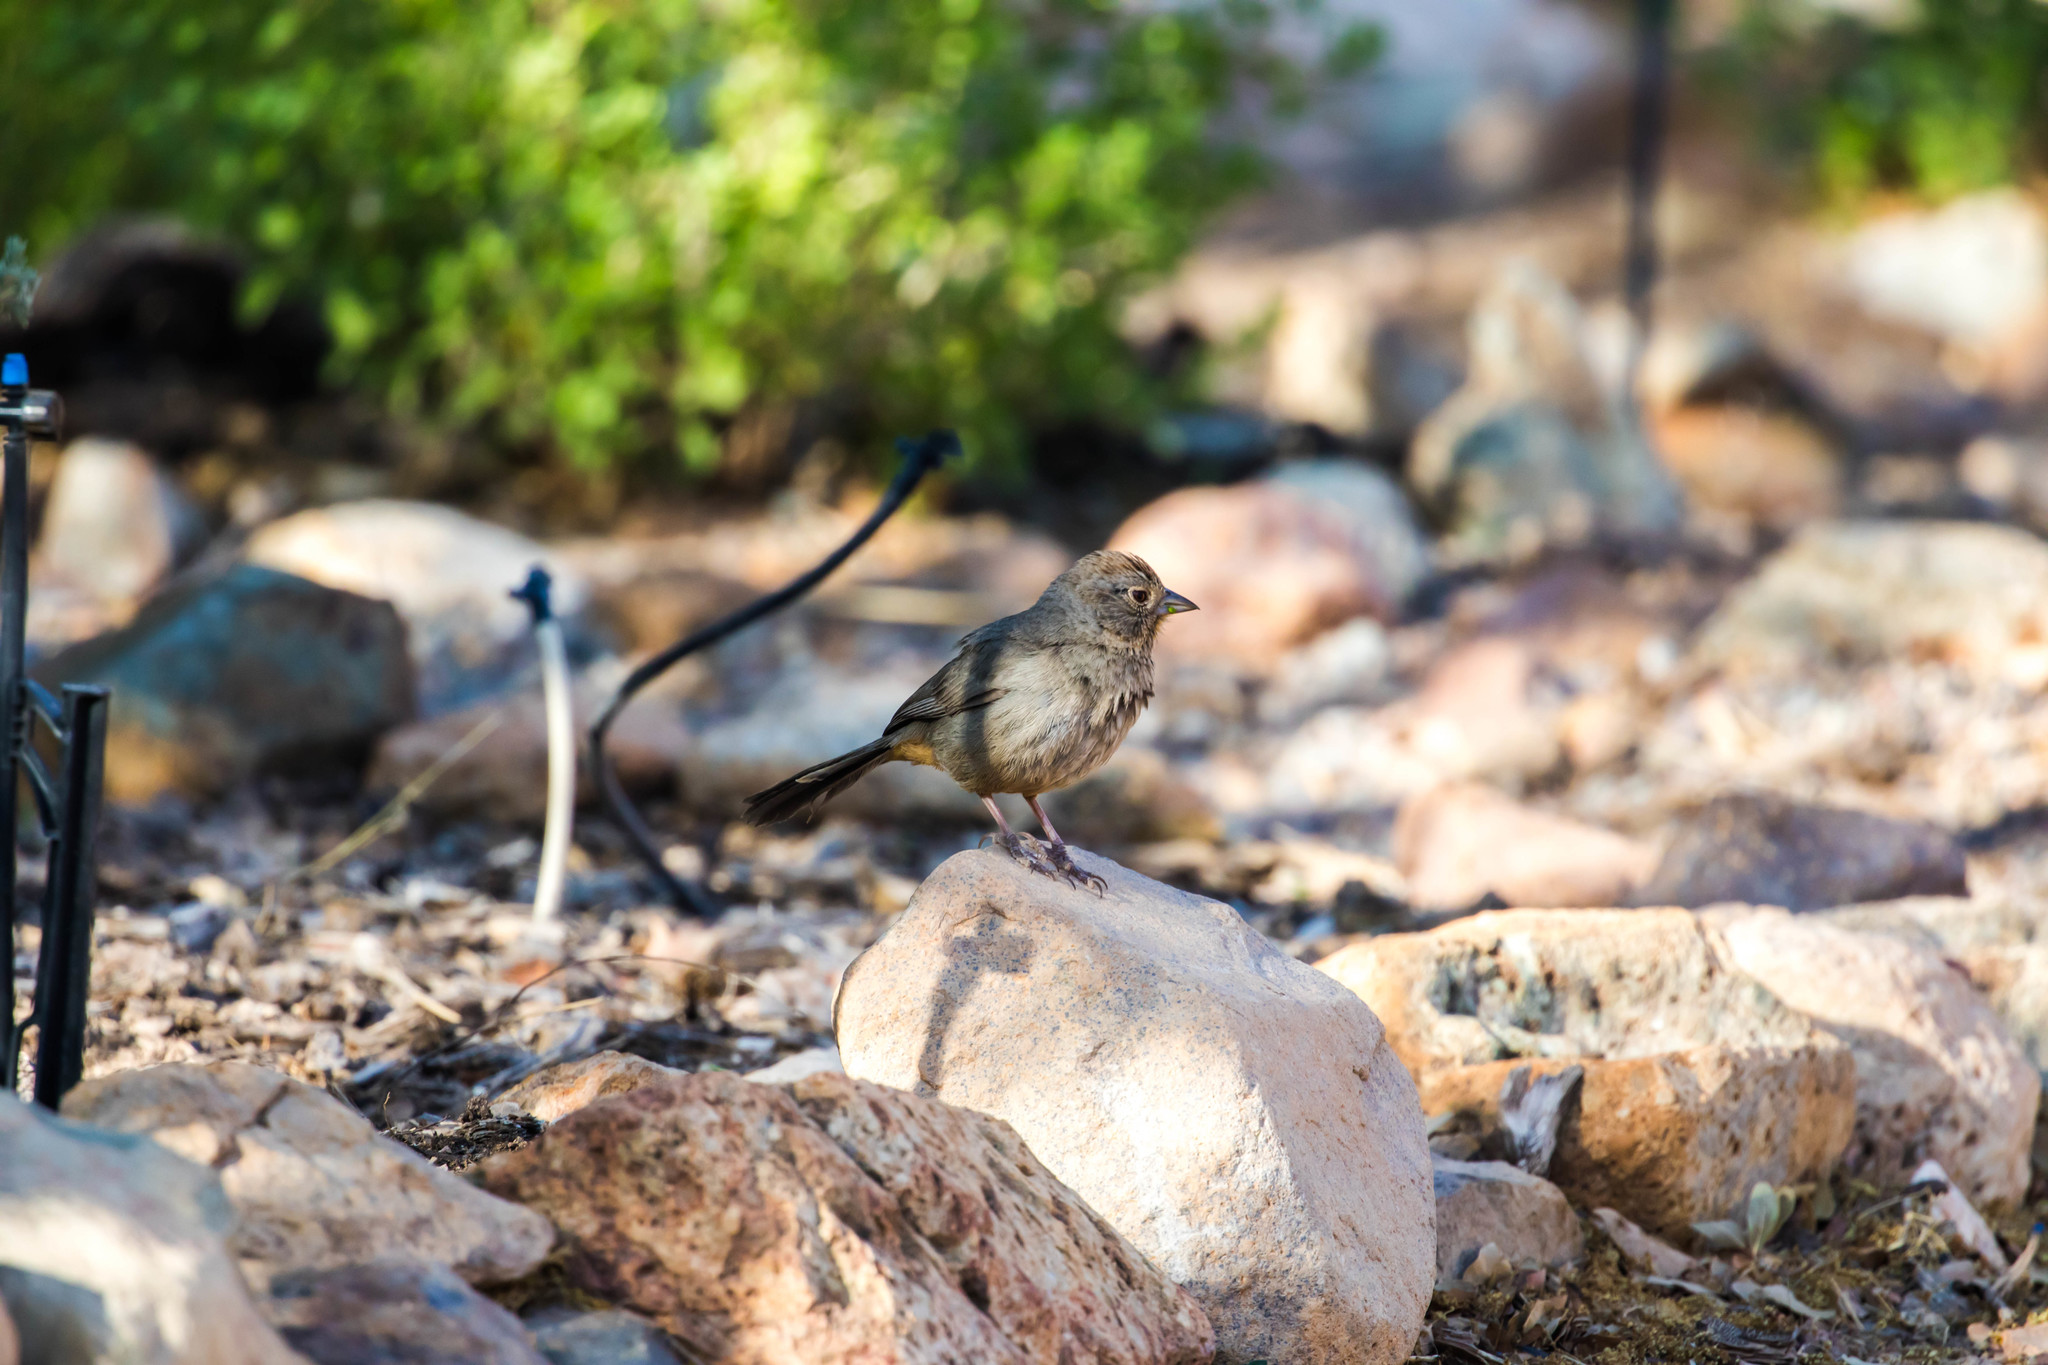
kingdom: Animalia
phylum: Chordata
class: Aves
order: Passeriformes
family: Passerellidae
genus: Melozone
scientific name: Melozone fusca
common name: Canyon towhee
